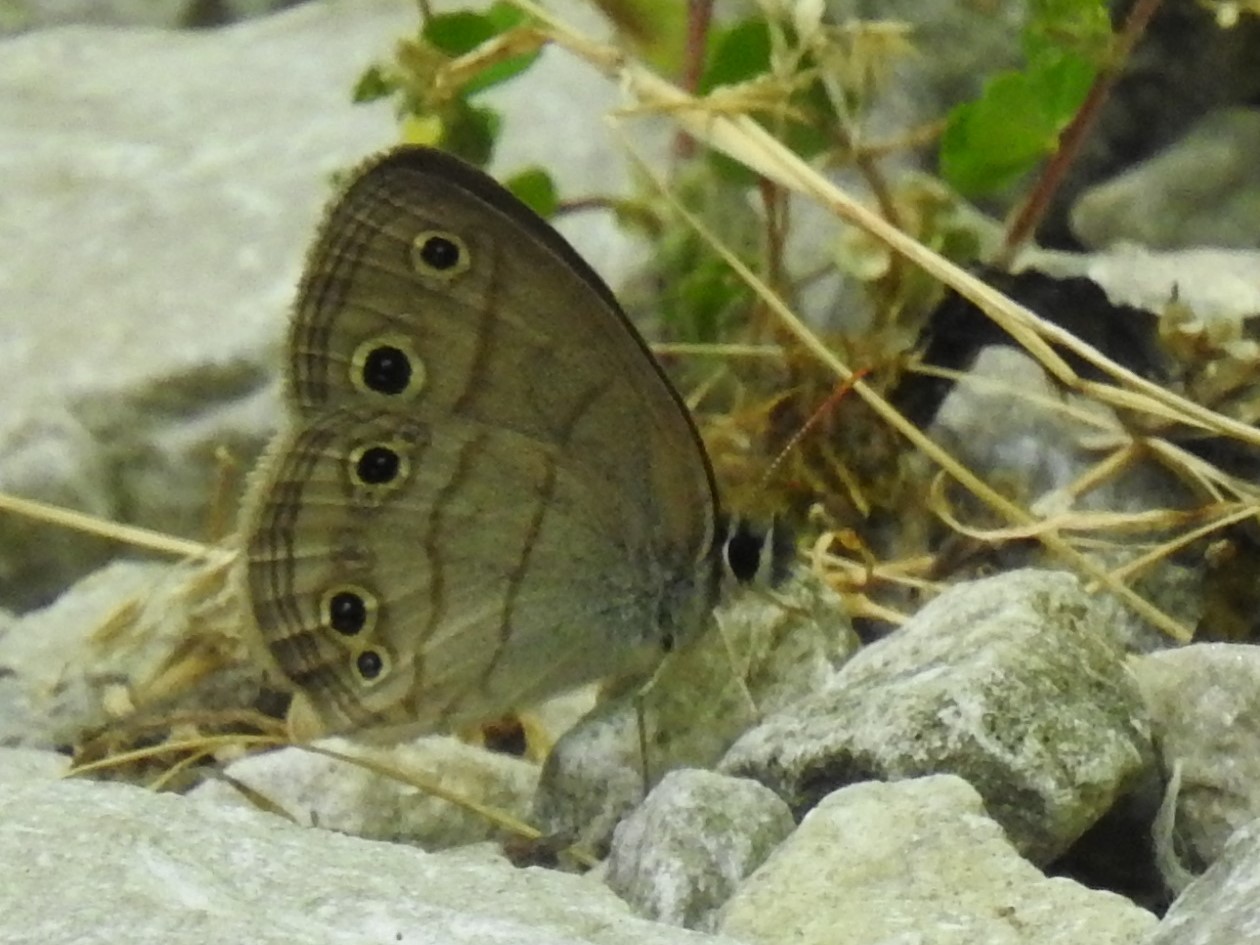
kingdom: Animalia
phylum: Arthropoda
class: Insecta
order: Lepidoptera
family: Nymphalidae
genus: Euptychia
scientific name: Euptychia cymela
